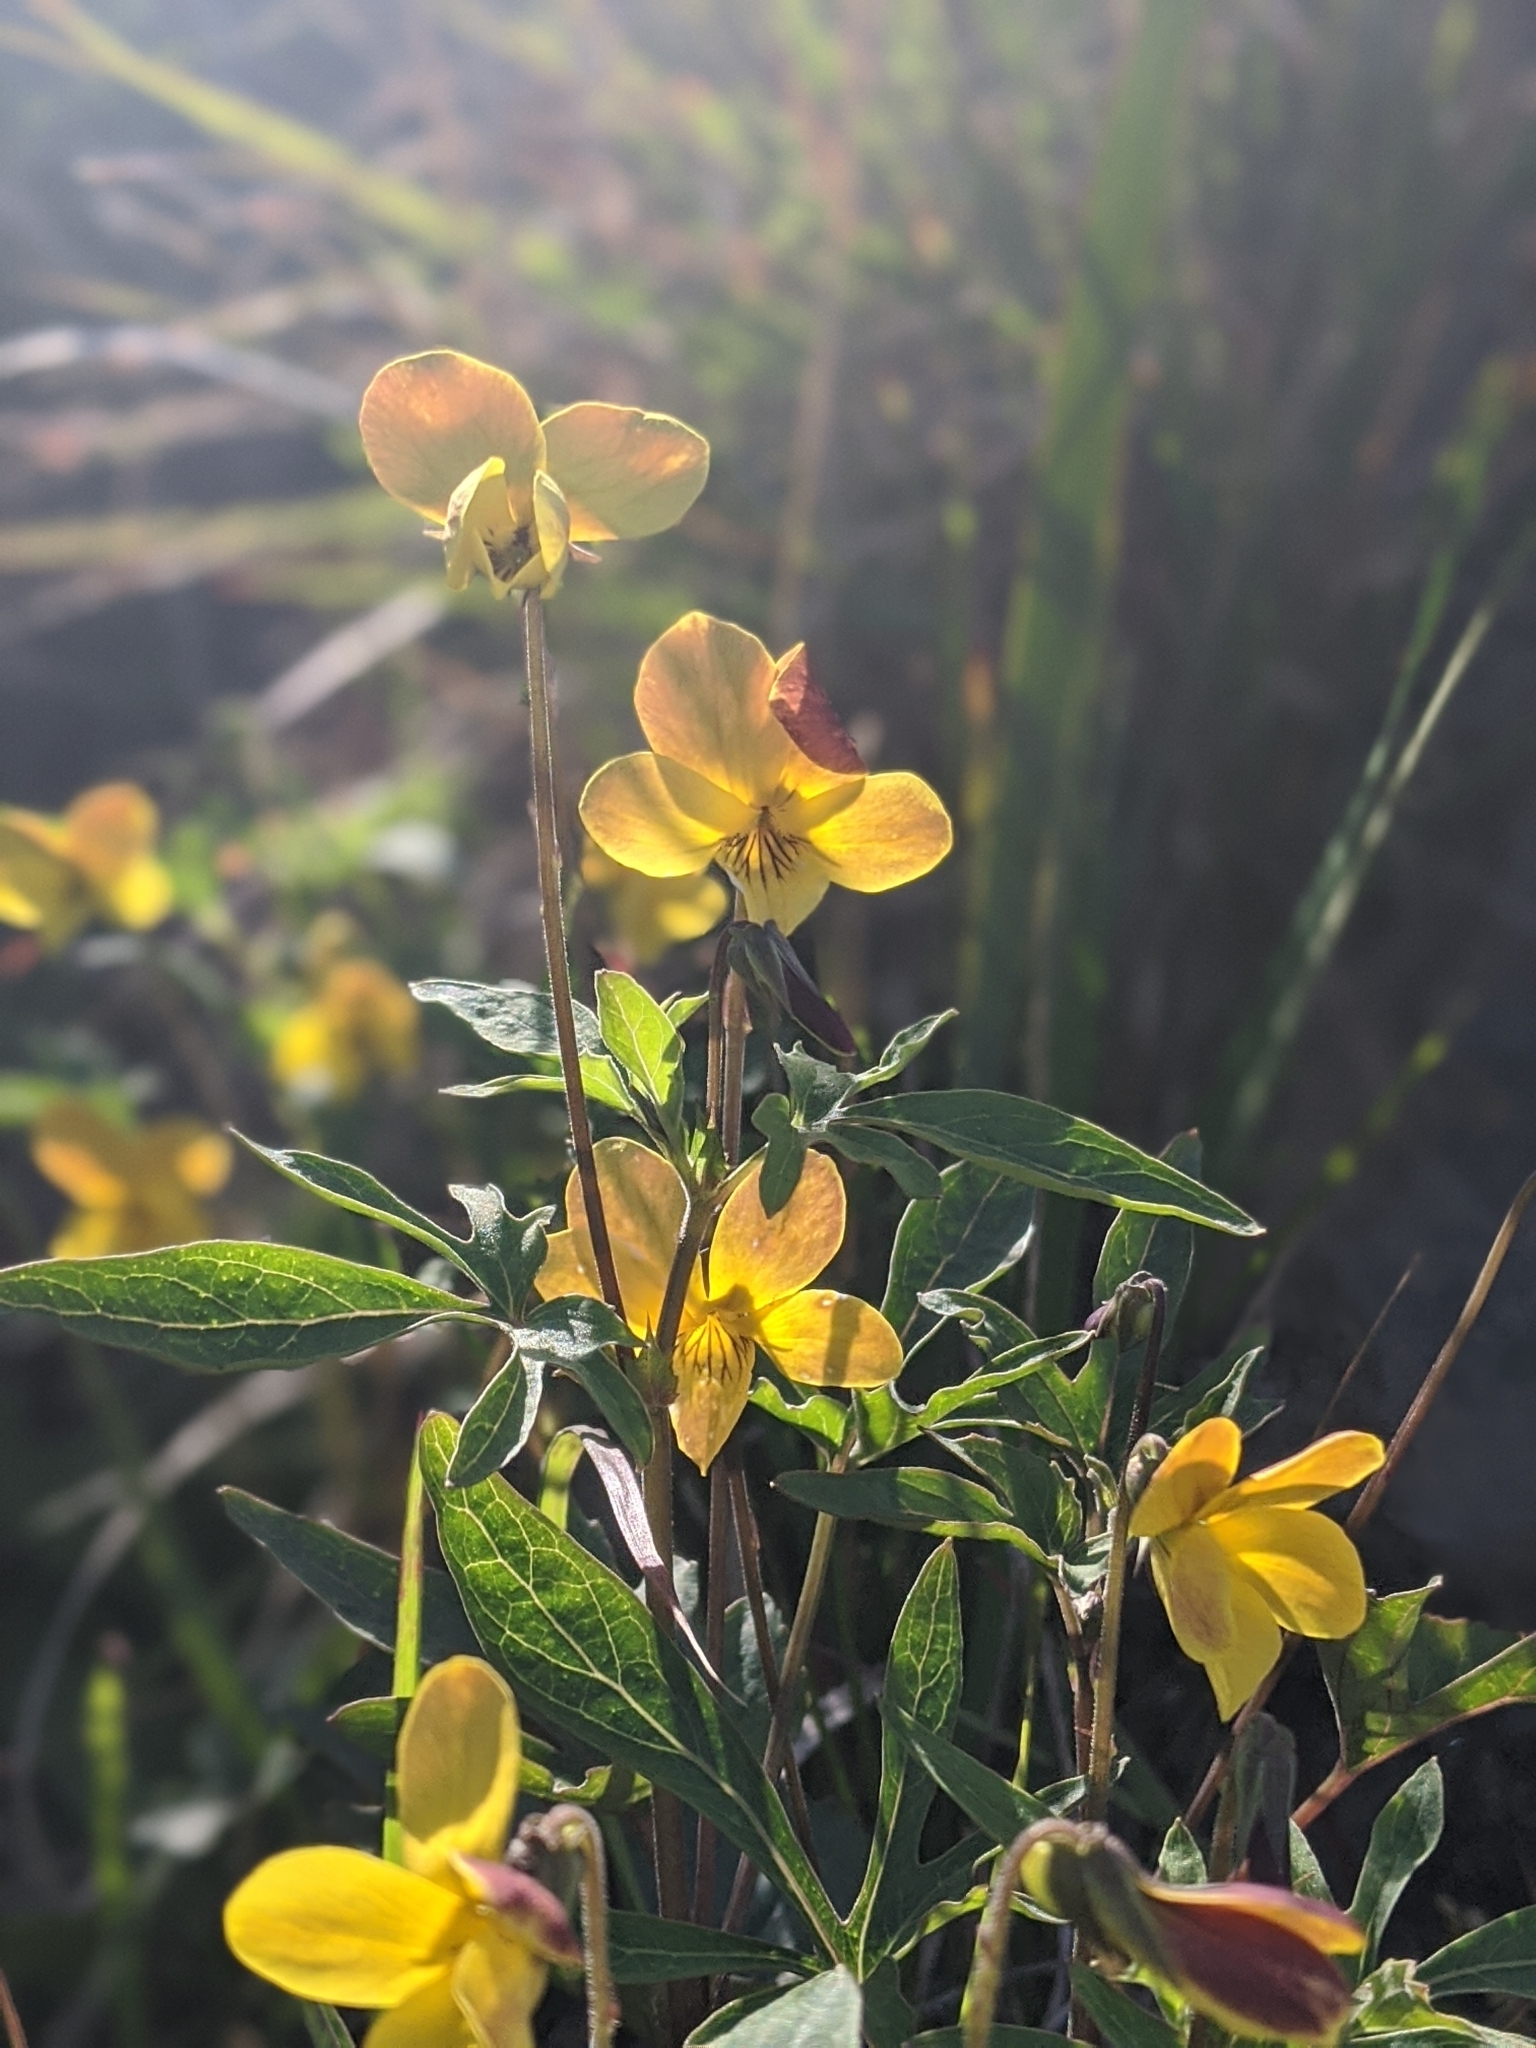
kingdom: Plantae
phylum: Tracheophyta
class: Magnoliopsida
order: Malpighiales
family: Violaceae
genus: Viola
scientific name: Viola lobata
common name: Pine violet
